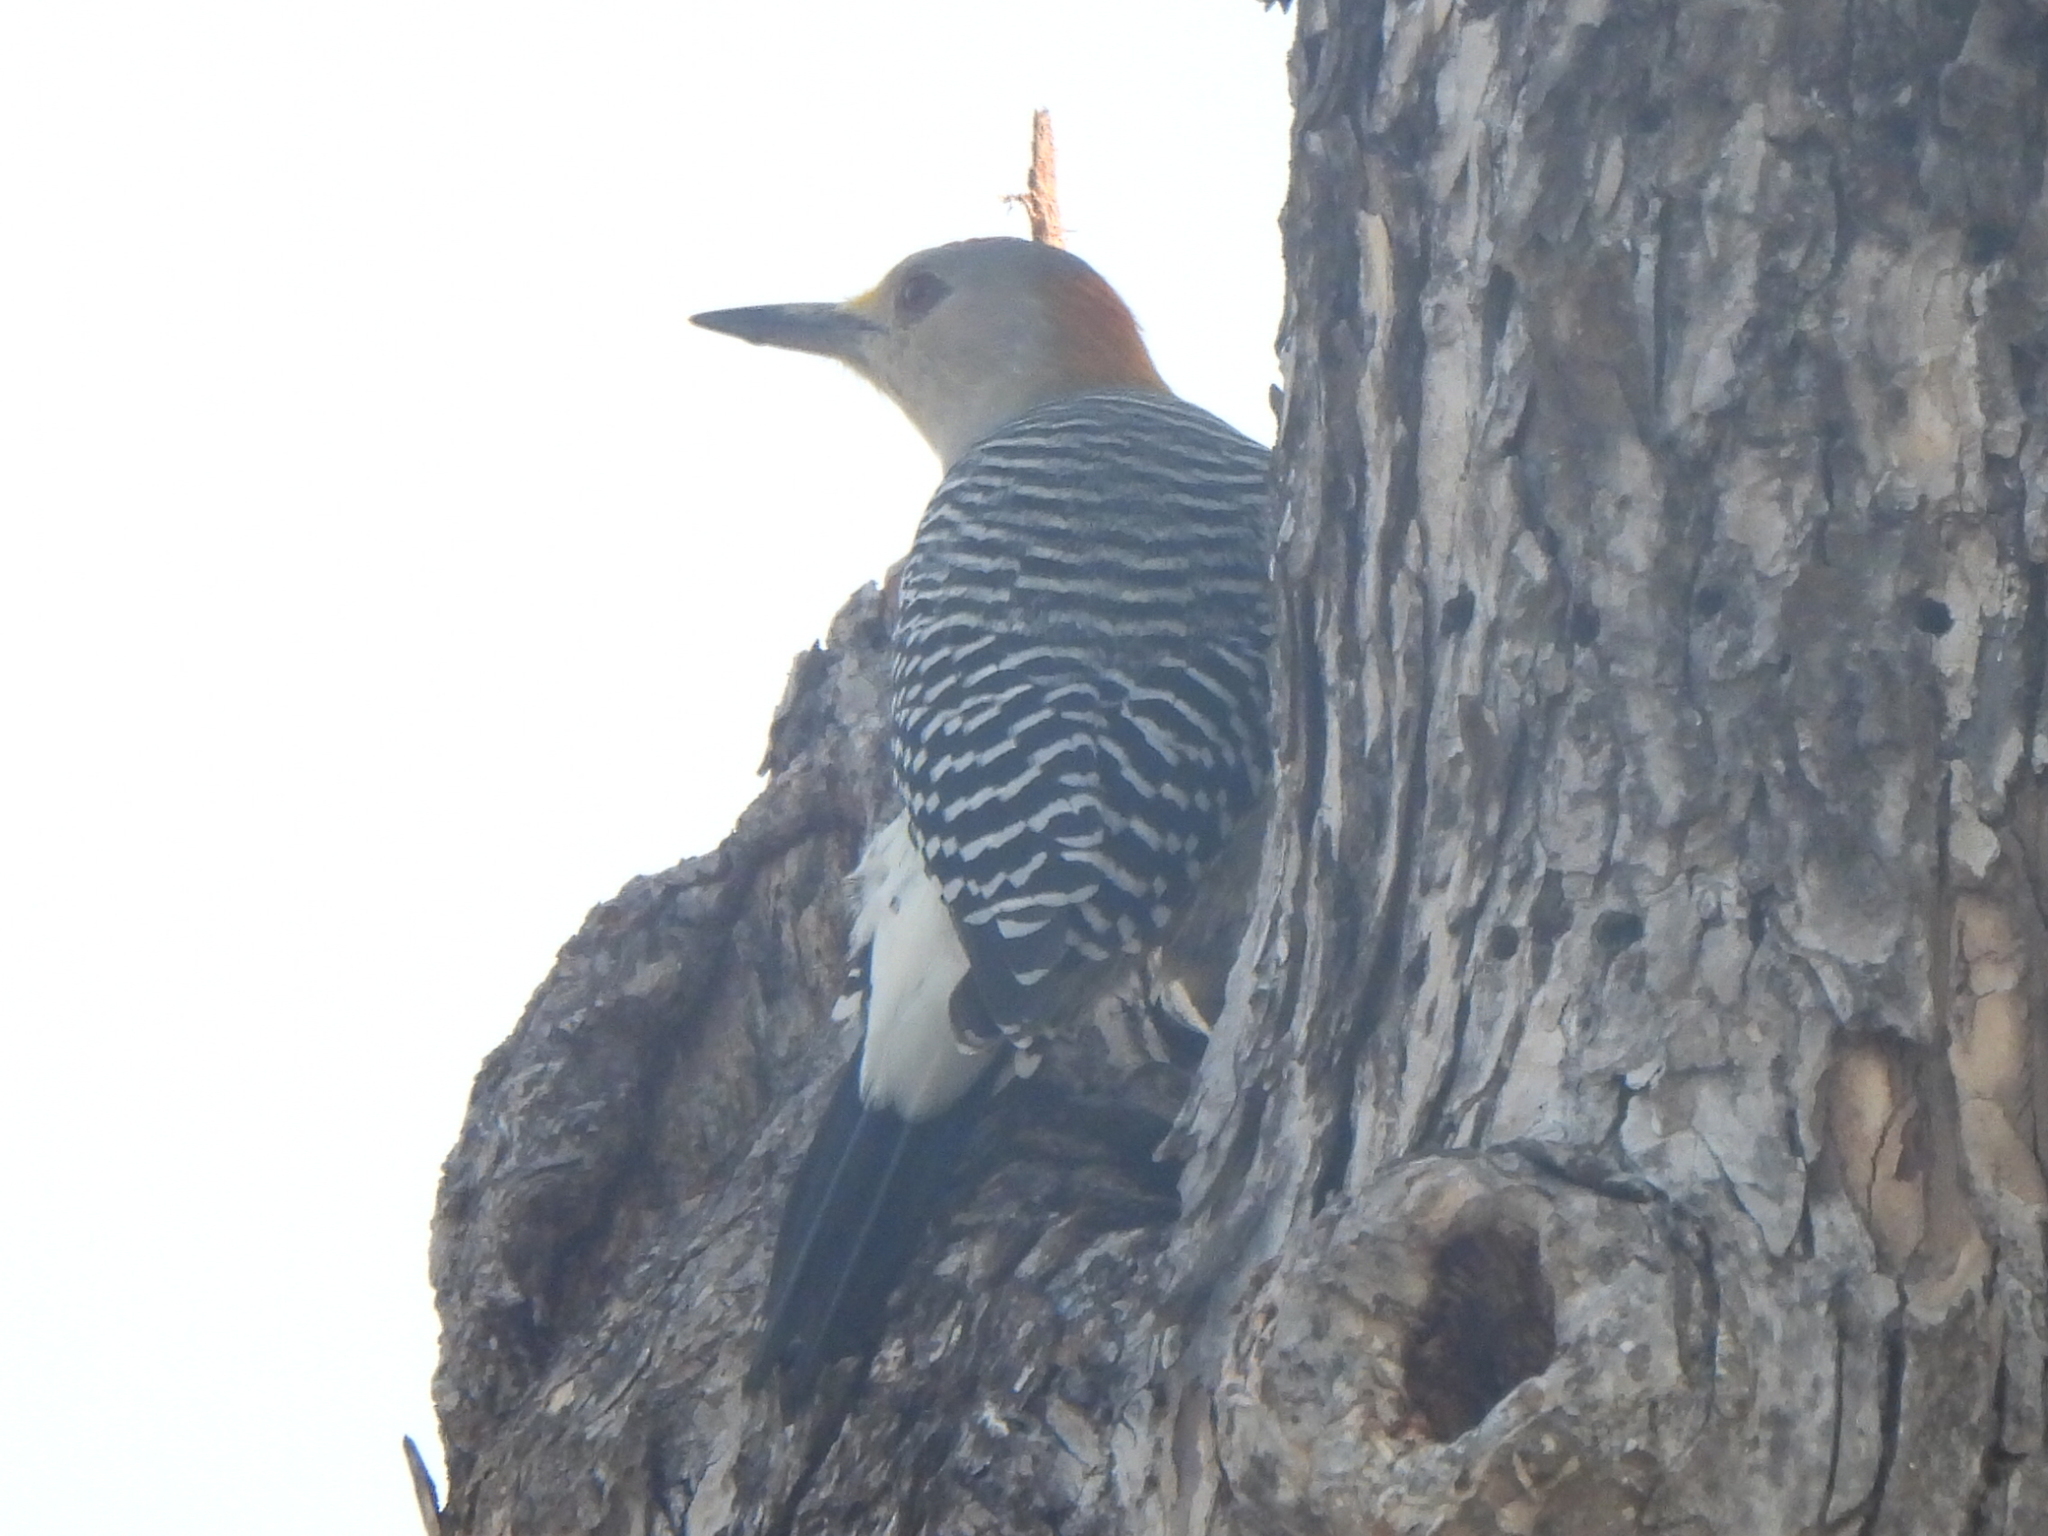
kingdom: Animalia
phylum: Chordata
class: Aves
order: Piciformes
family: Picidae
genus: Melanerpes
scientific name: Melanerpes aurifrons
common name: Golden-fronted woodpecker
